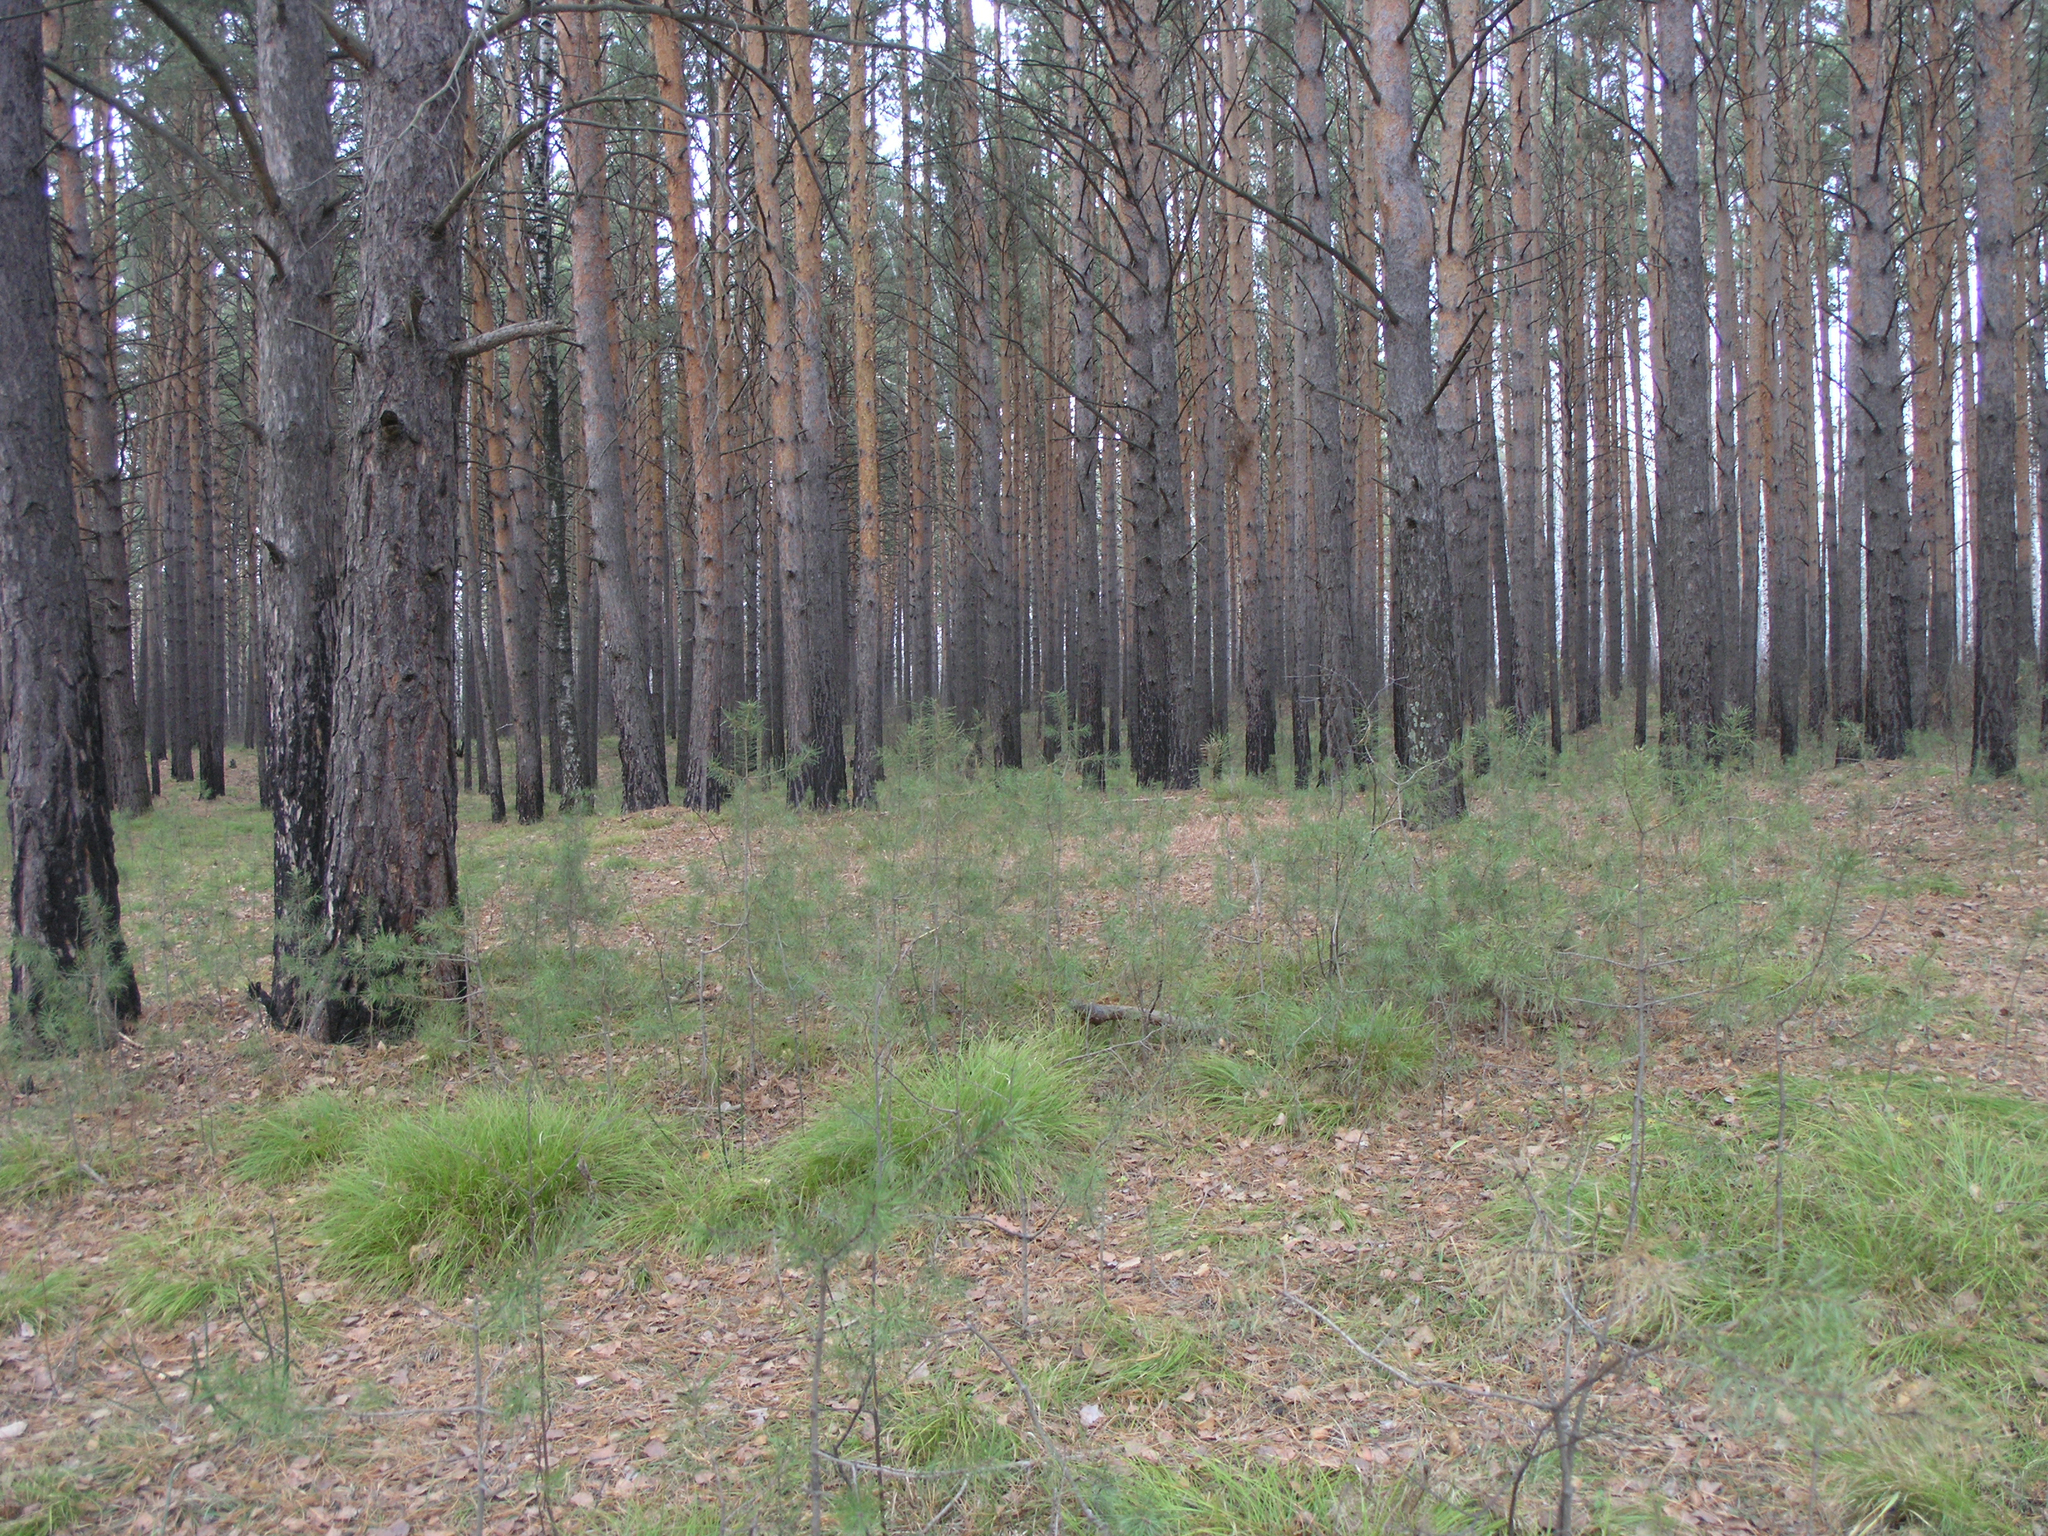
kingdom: Plantae
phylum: Tracheophyta
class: Pinopsida
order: Pinales
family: Pinaceae
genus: Pinus
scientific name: Pinus sylvestris
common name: Scots pine
